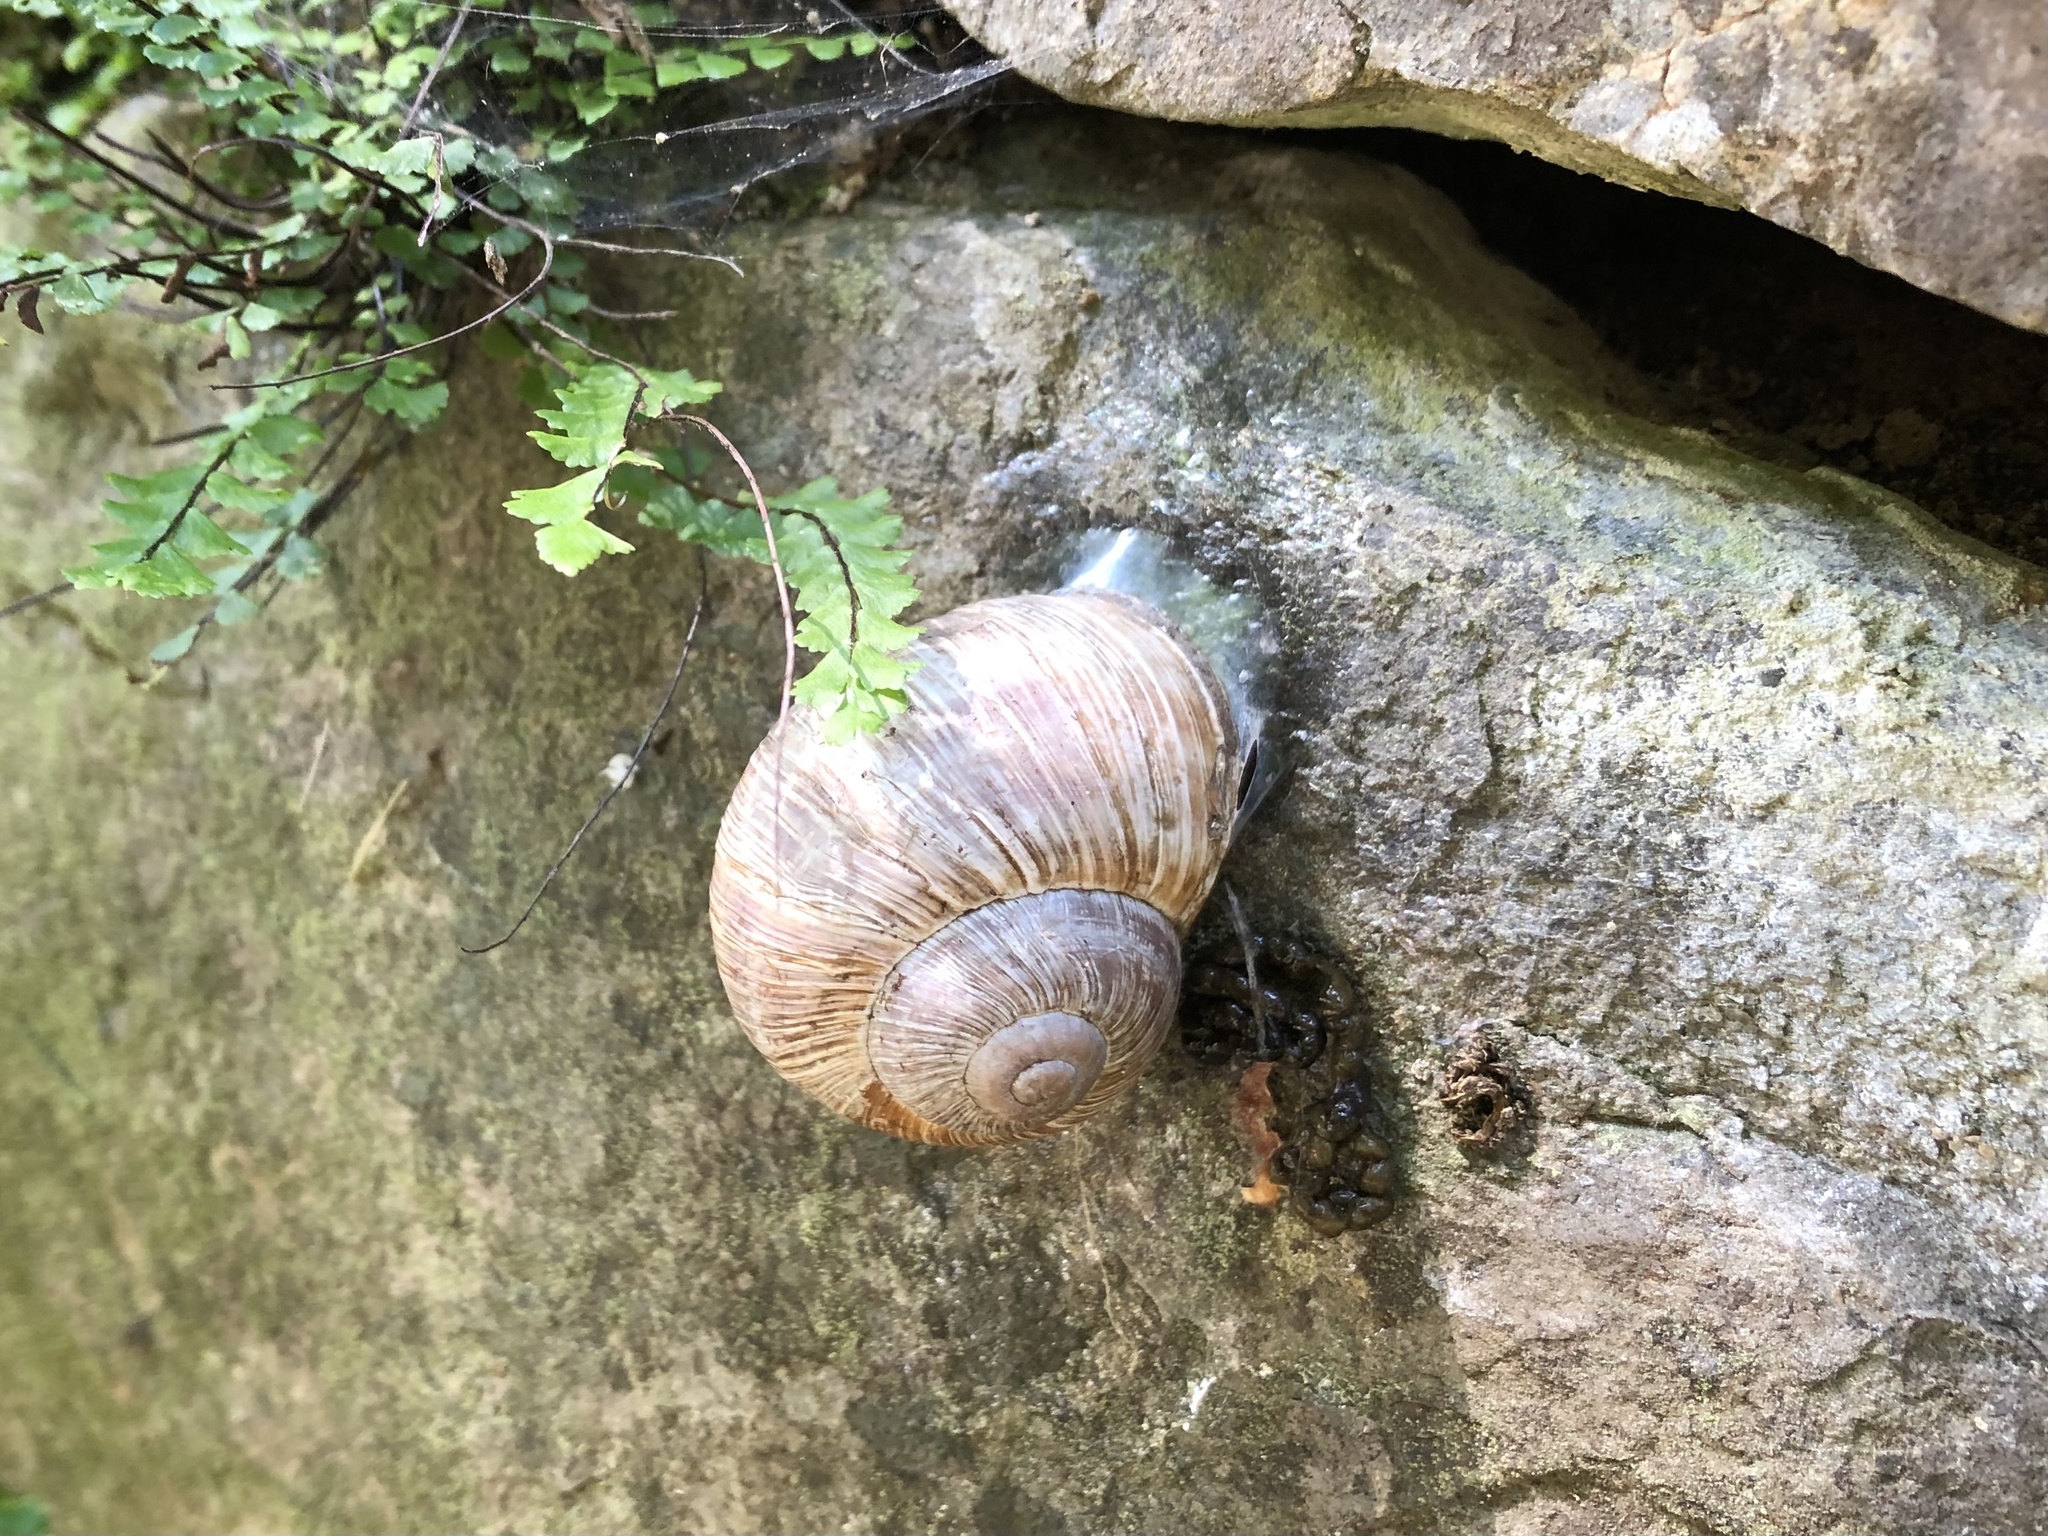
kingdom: Animalia
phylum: Mollusca
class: Gastropoda
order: Stylommatophora
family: Helicidae
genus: Helix
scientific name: Helix pomatia
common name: Roman snail
